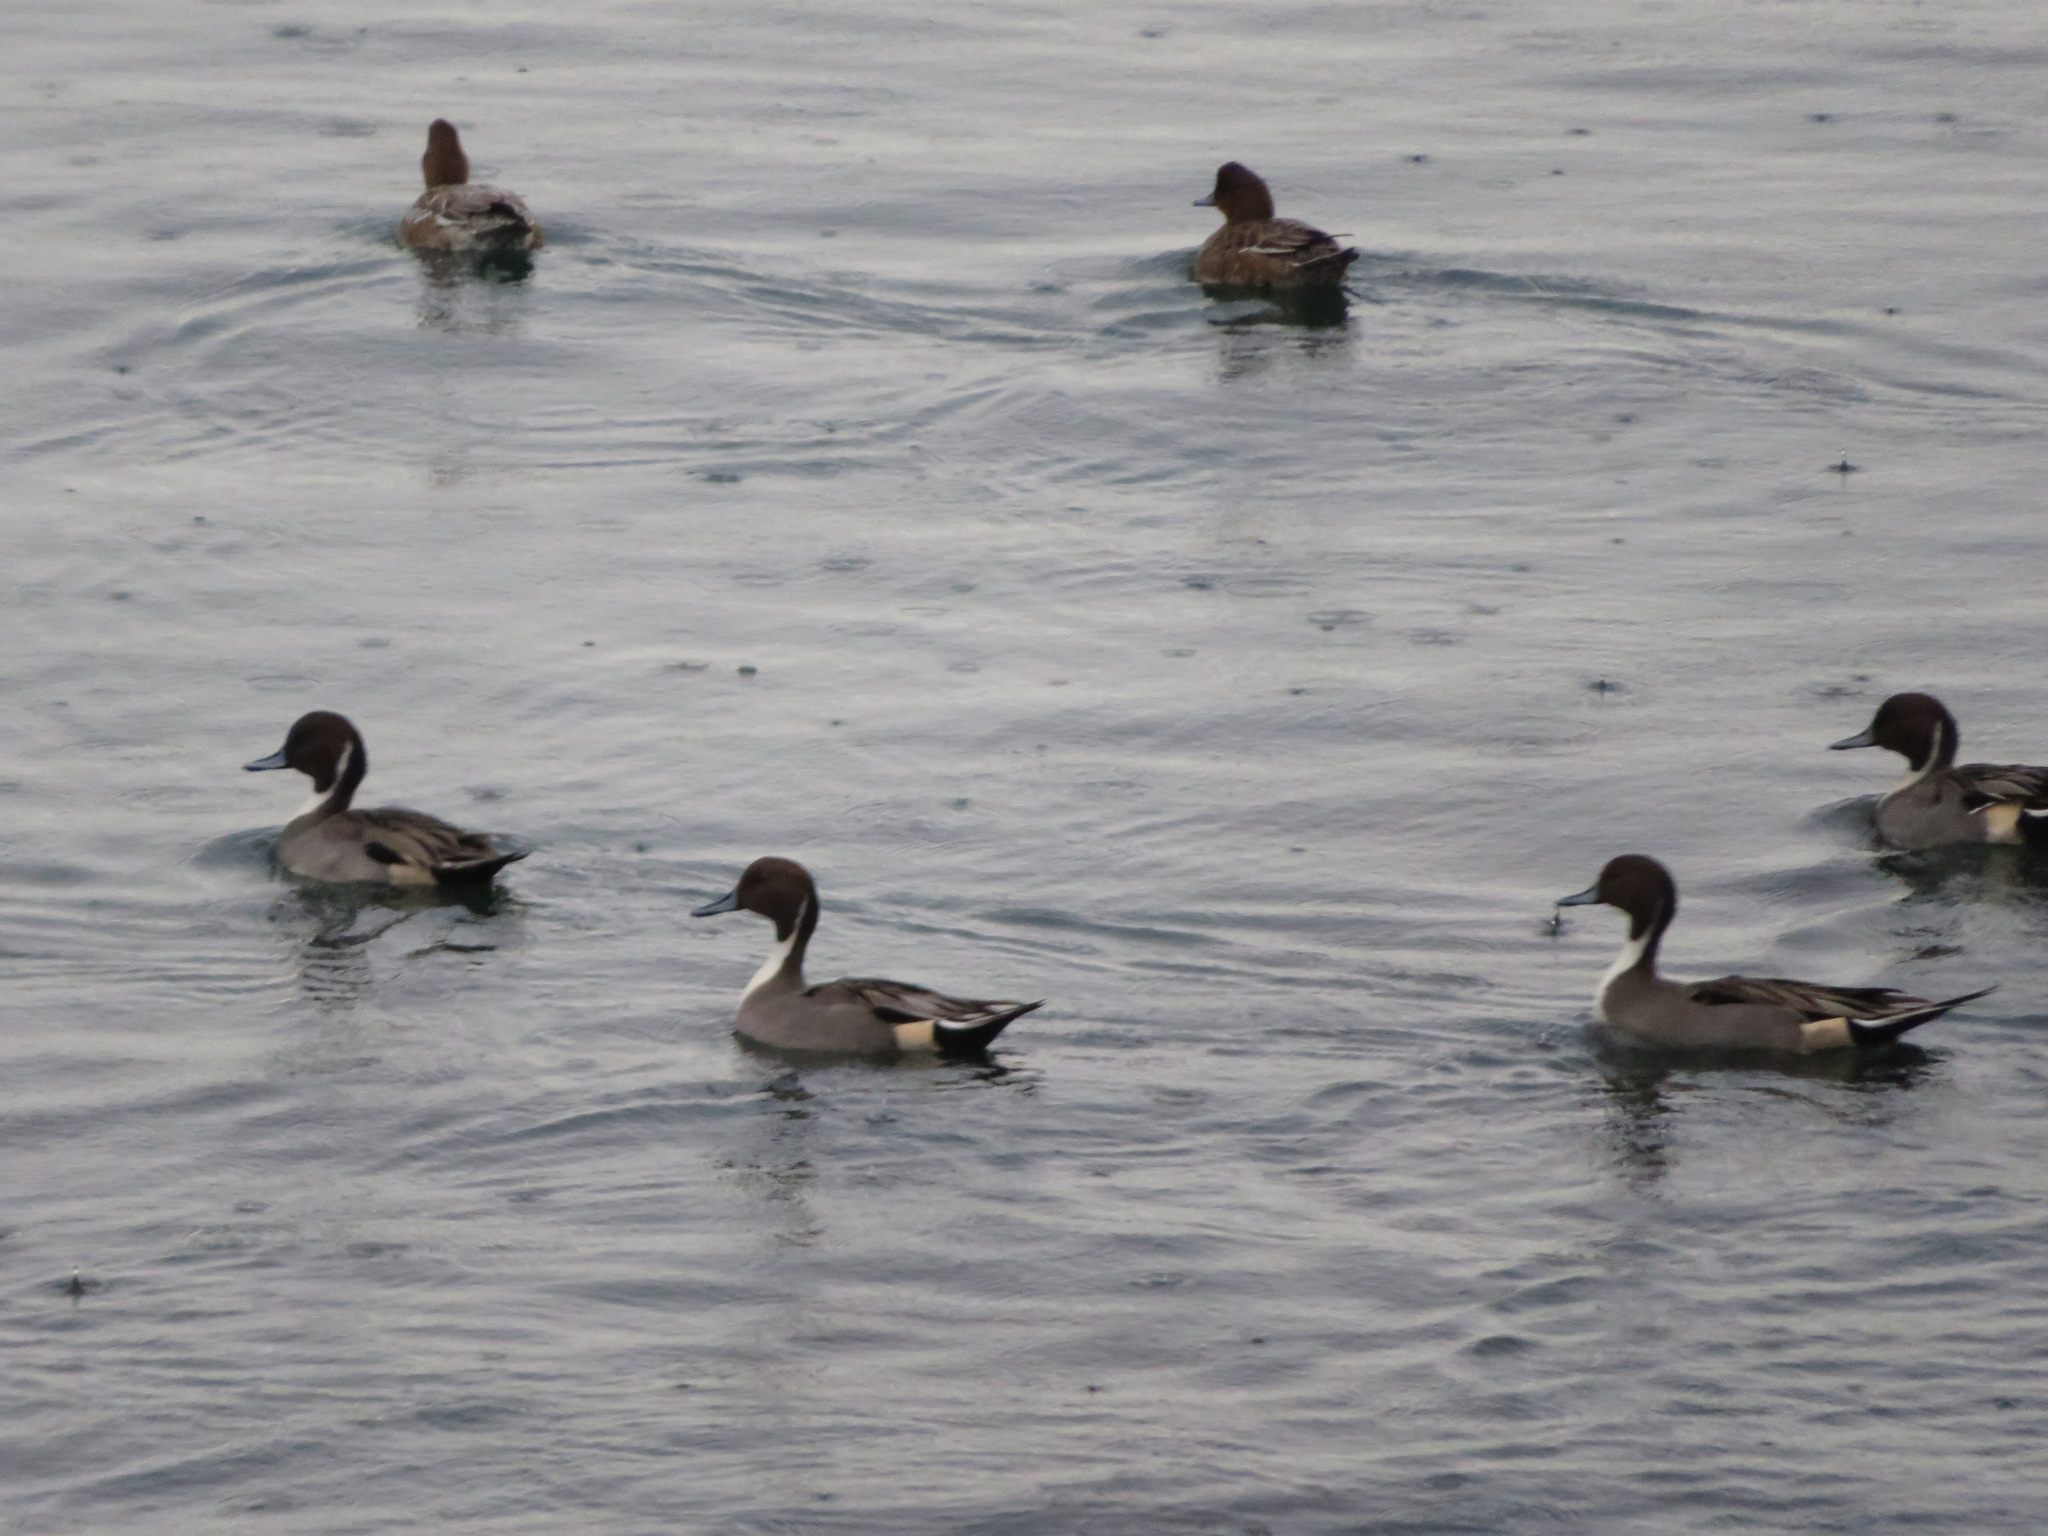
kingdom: Animalia
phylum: Chordata
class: Aves
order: Anseriformes
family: Anatidae
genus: Anas
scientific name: Anas acuta
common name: Northern pintail
